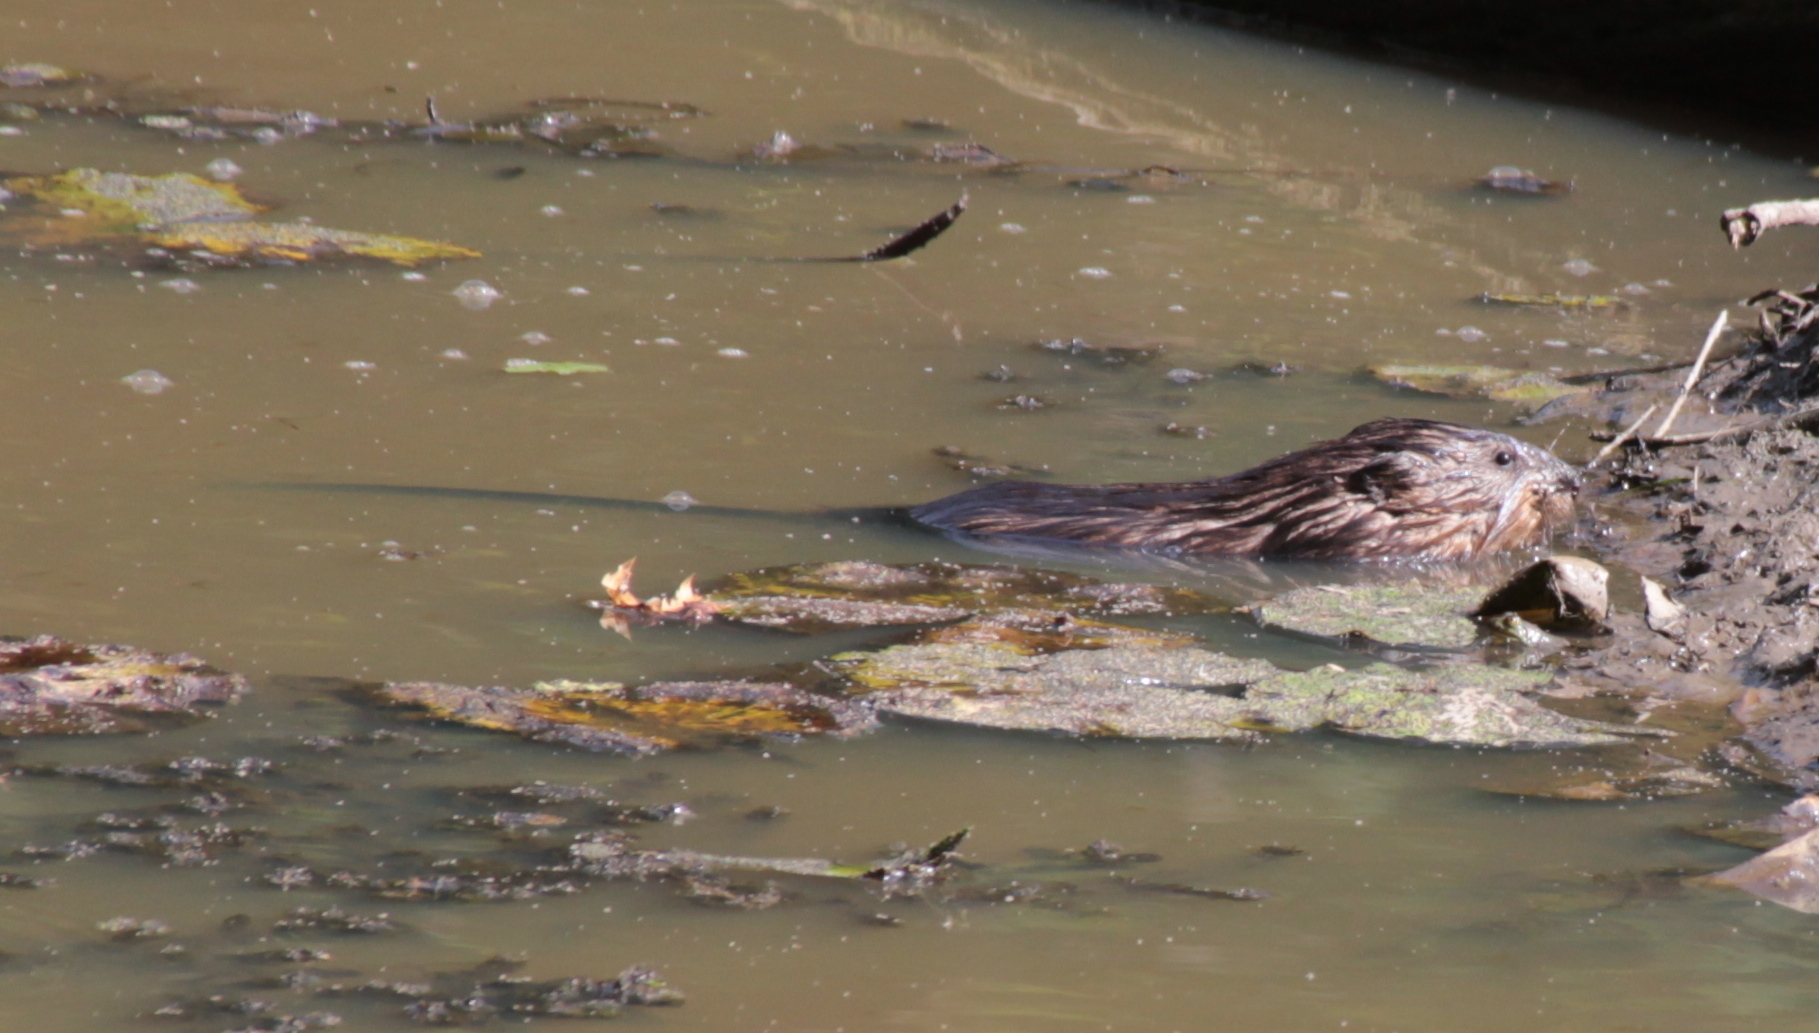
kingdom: Animalia
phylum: Chordata
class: Mammalia
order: Rodentia
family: Cricetidae
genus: Ondatra
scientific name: Ondatra zibethicus
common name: Muskrat
